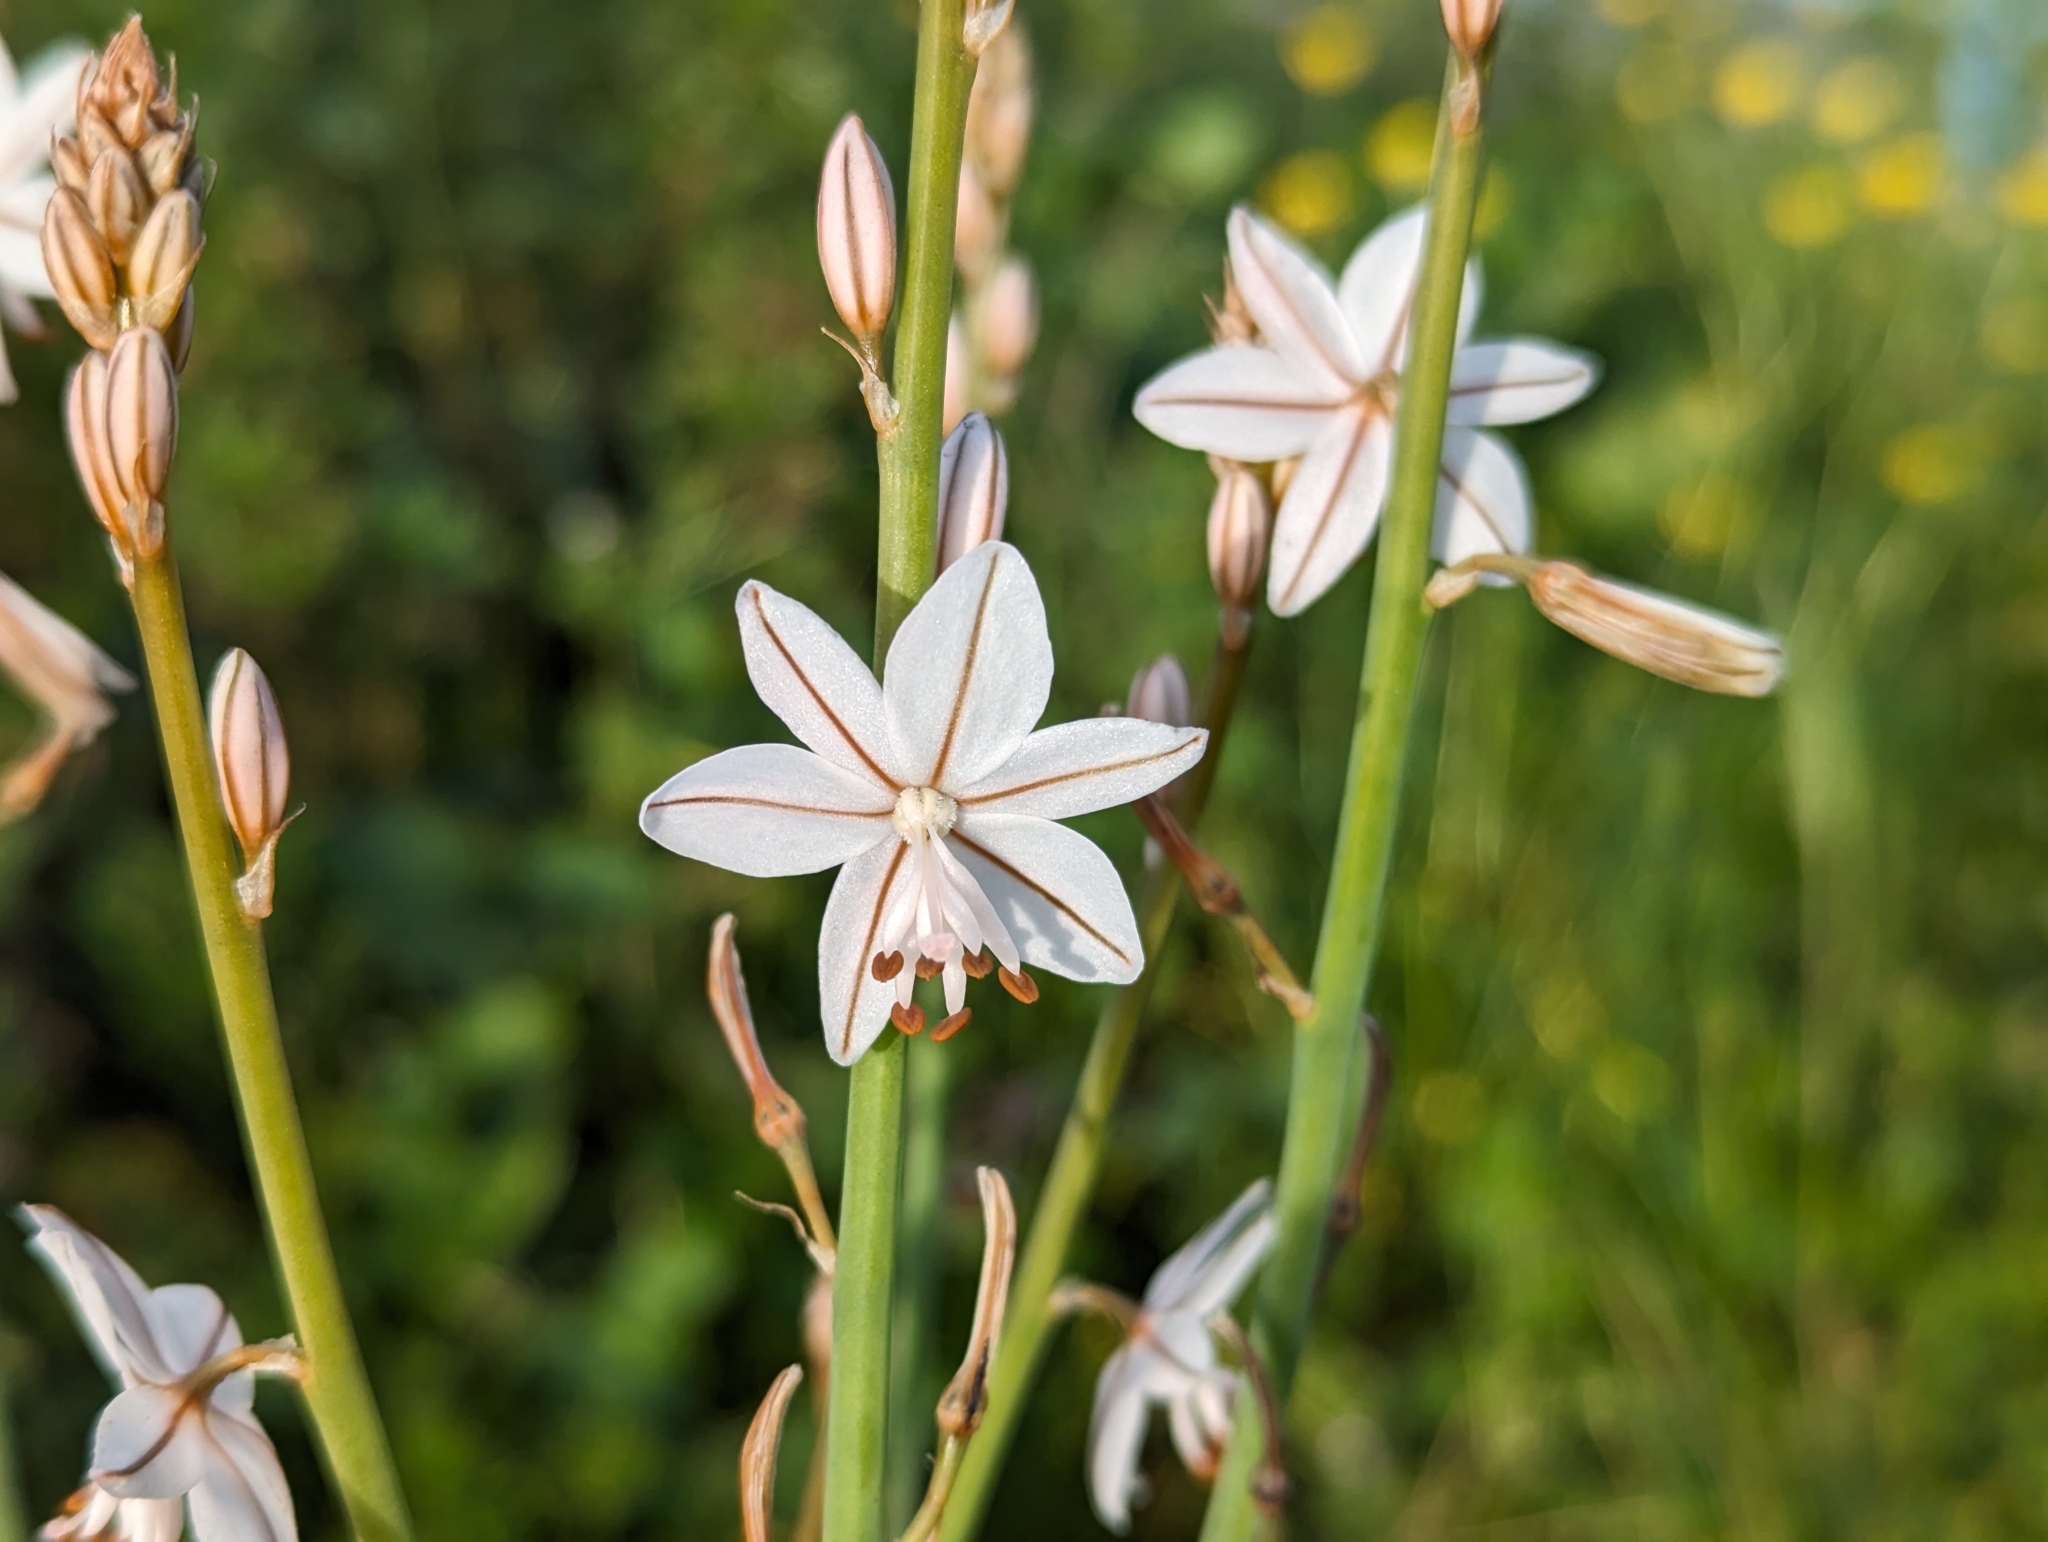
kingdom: Plantae
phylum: Tracheophyta
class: Liliopsida
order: Asparagales
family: Asphodelaceae
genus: Asphodelus
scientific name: Asphodelus fistulosus
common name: Onionweed
